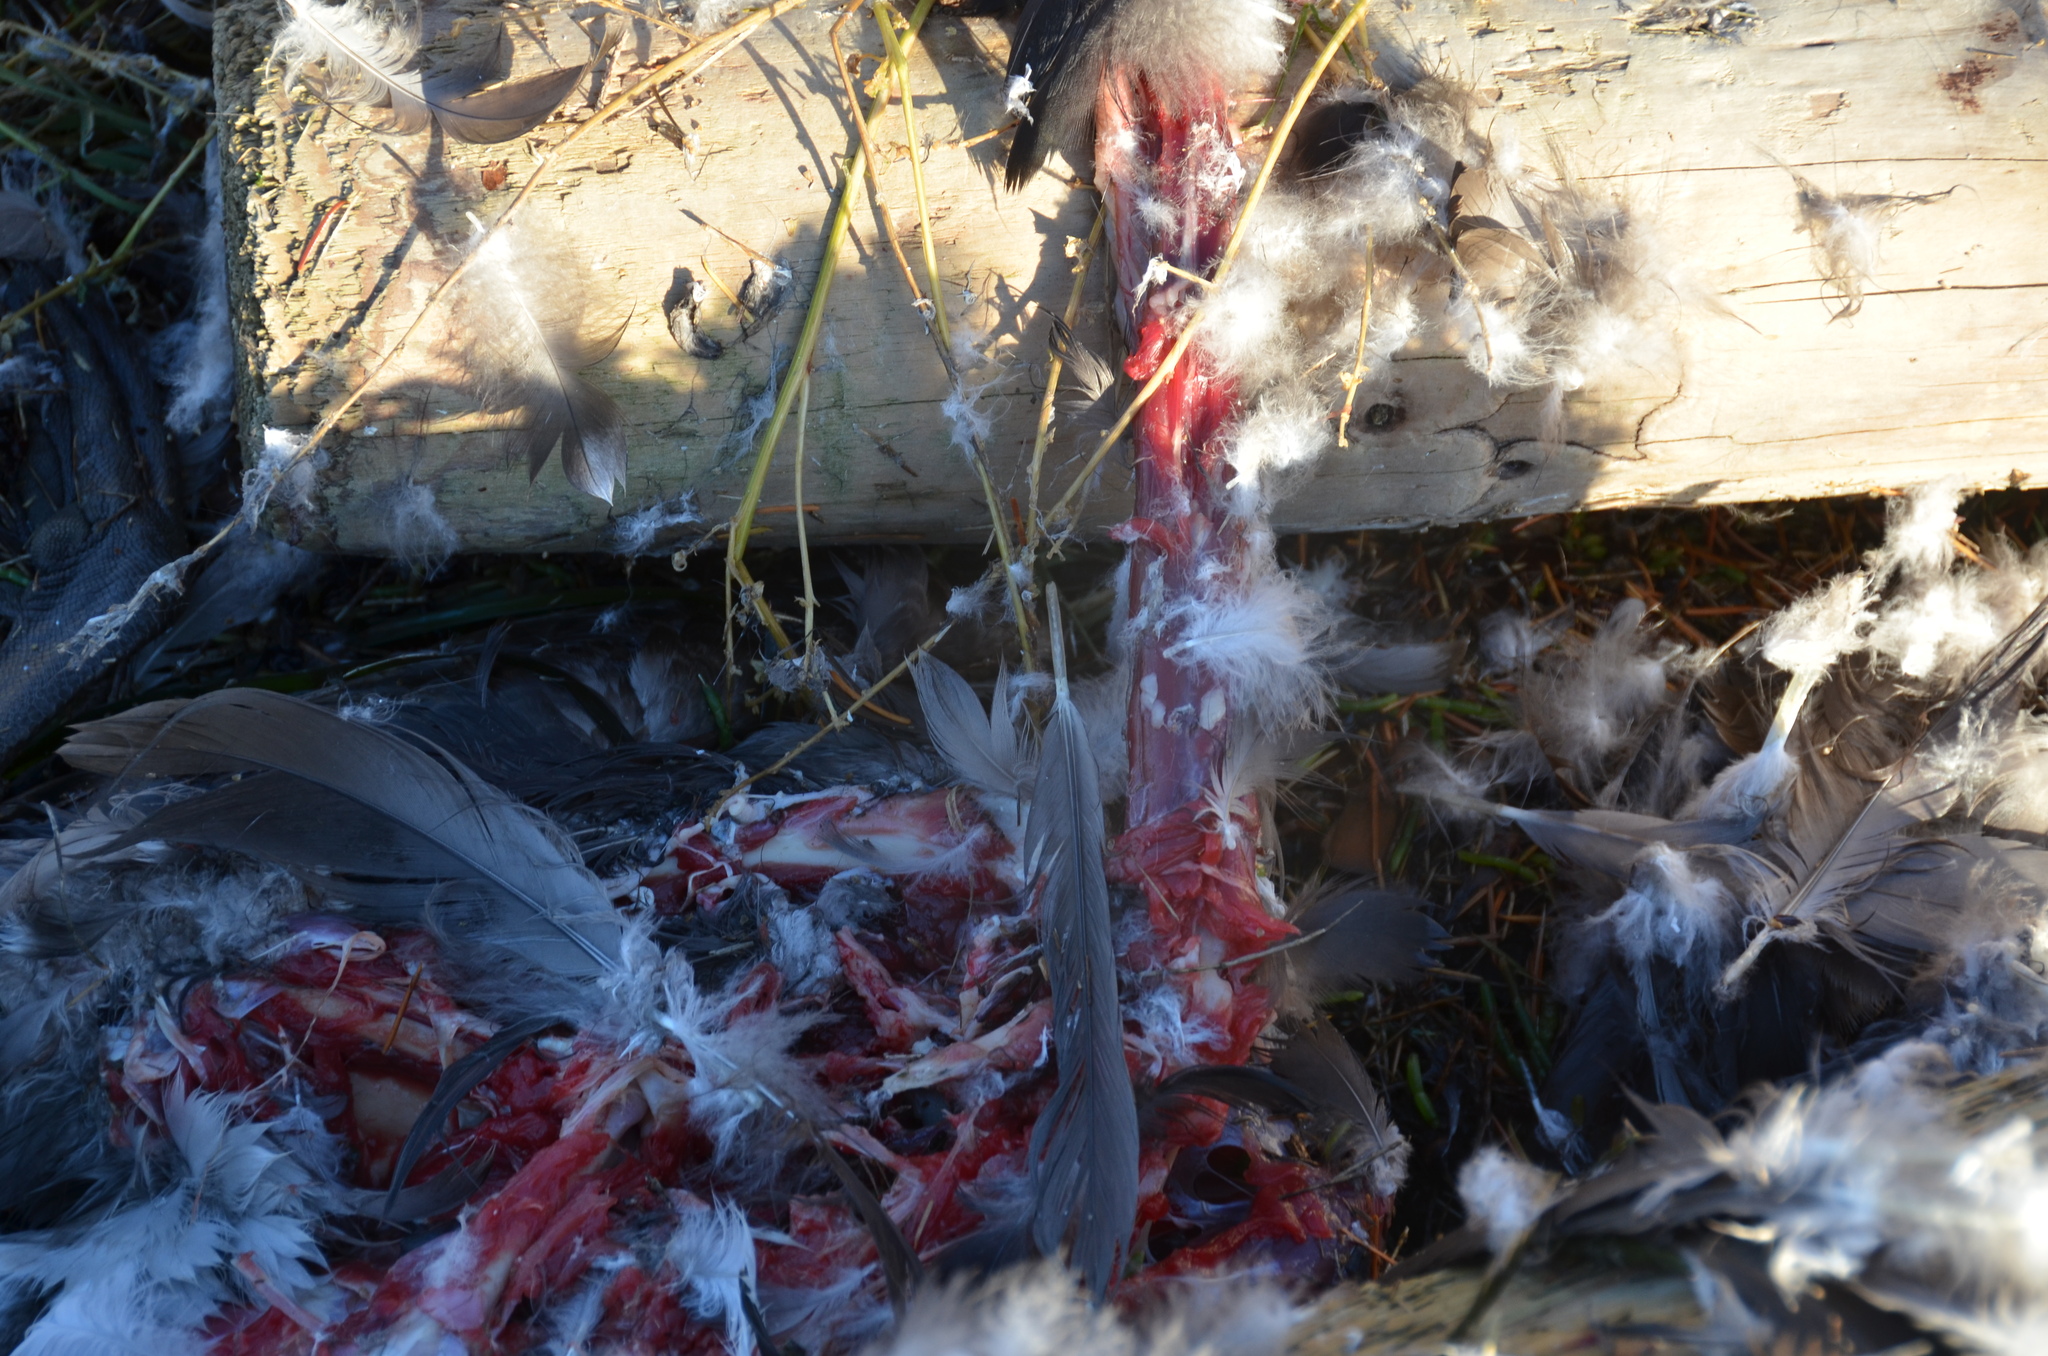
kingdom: Animalia
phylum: Chordata
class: Aves
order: Anseriformes
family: Anatidae
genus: Branta
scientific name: Branta canadensis
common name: Canada goose
